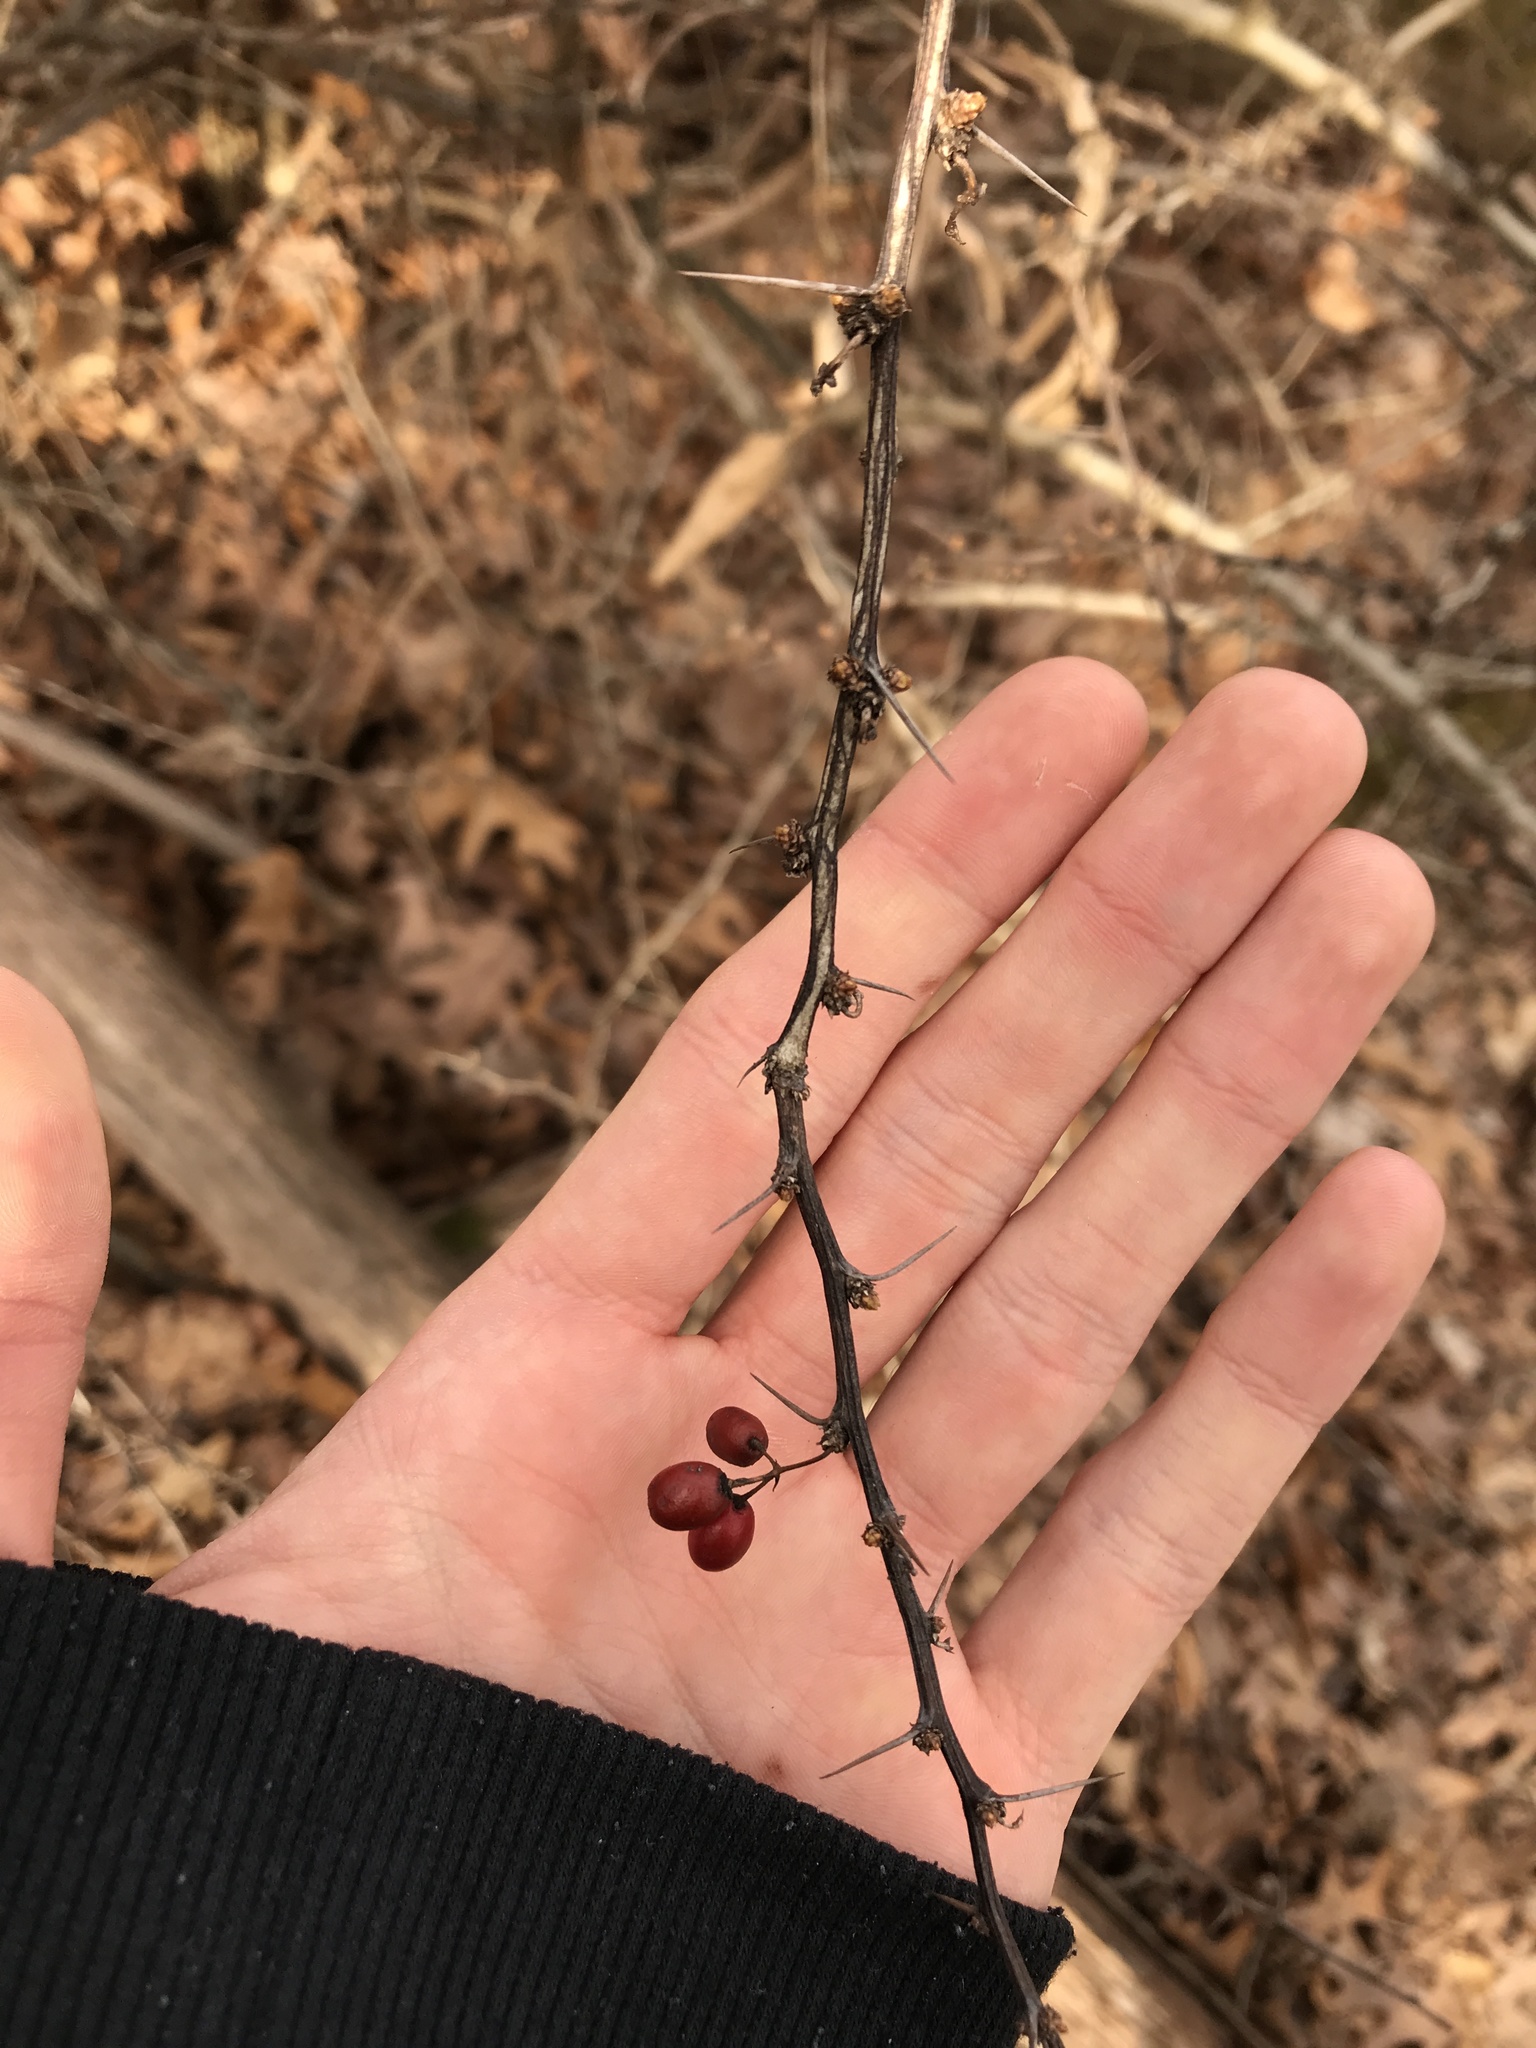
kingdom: Plantae
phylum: Tracheophyta
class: Magnoliopsida
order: Ranunculales
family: Berberidaceae
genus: Berberis
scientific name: Berberis thunbergii
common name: Japanese barberry
